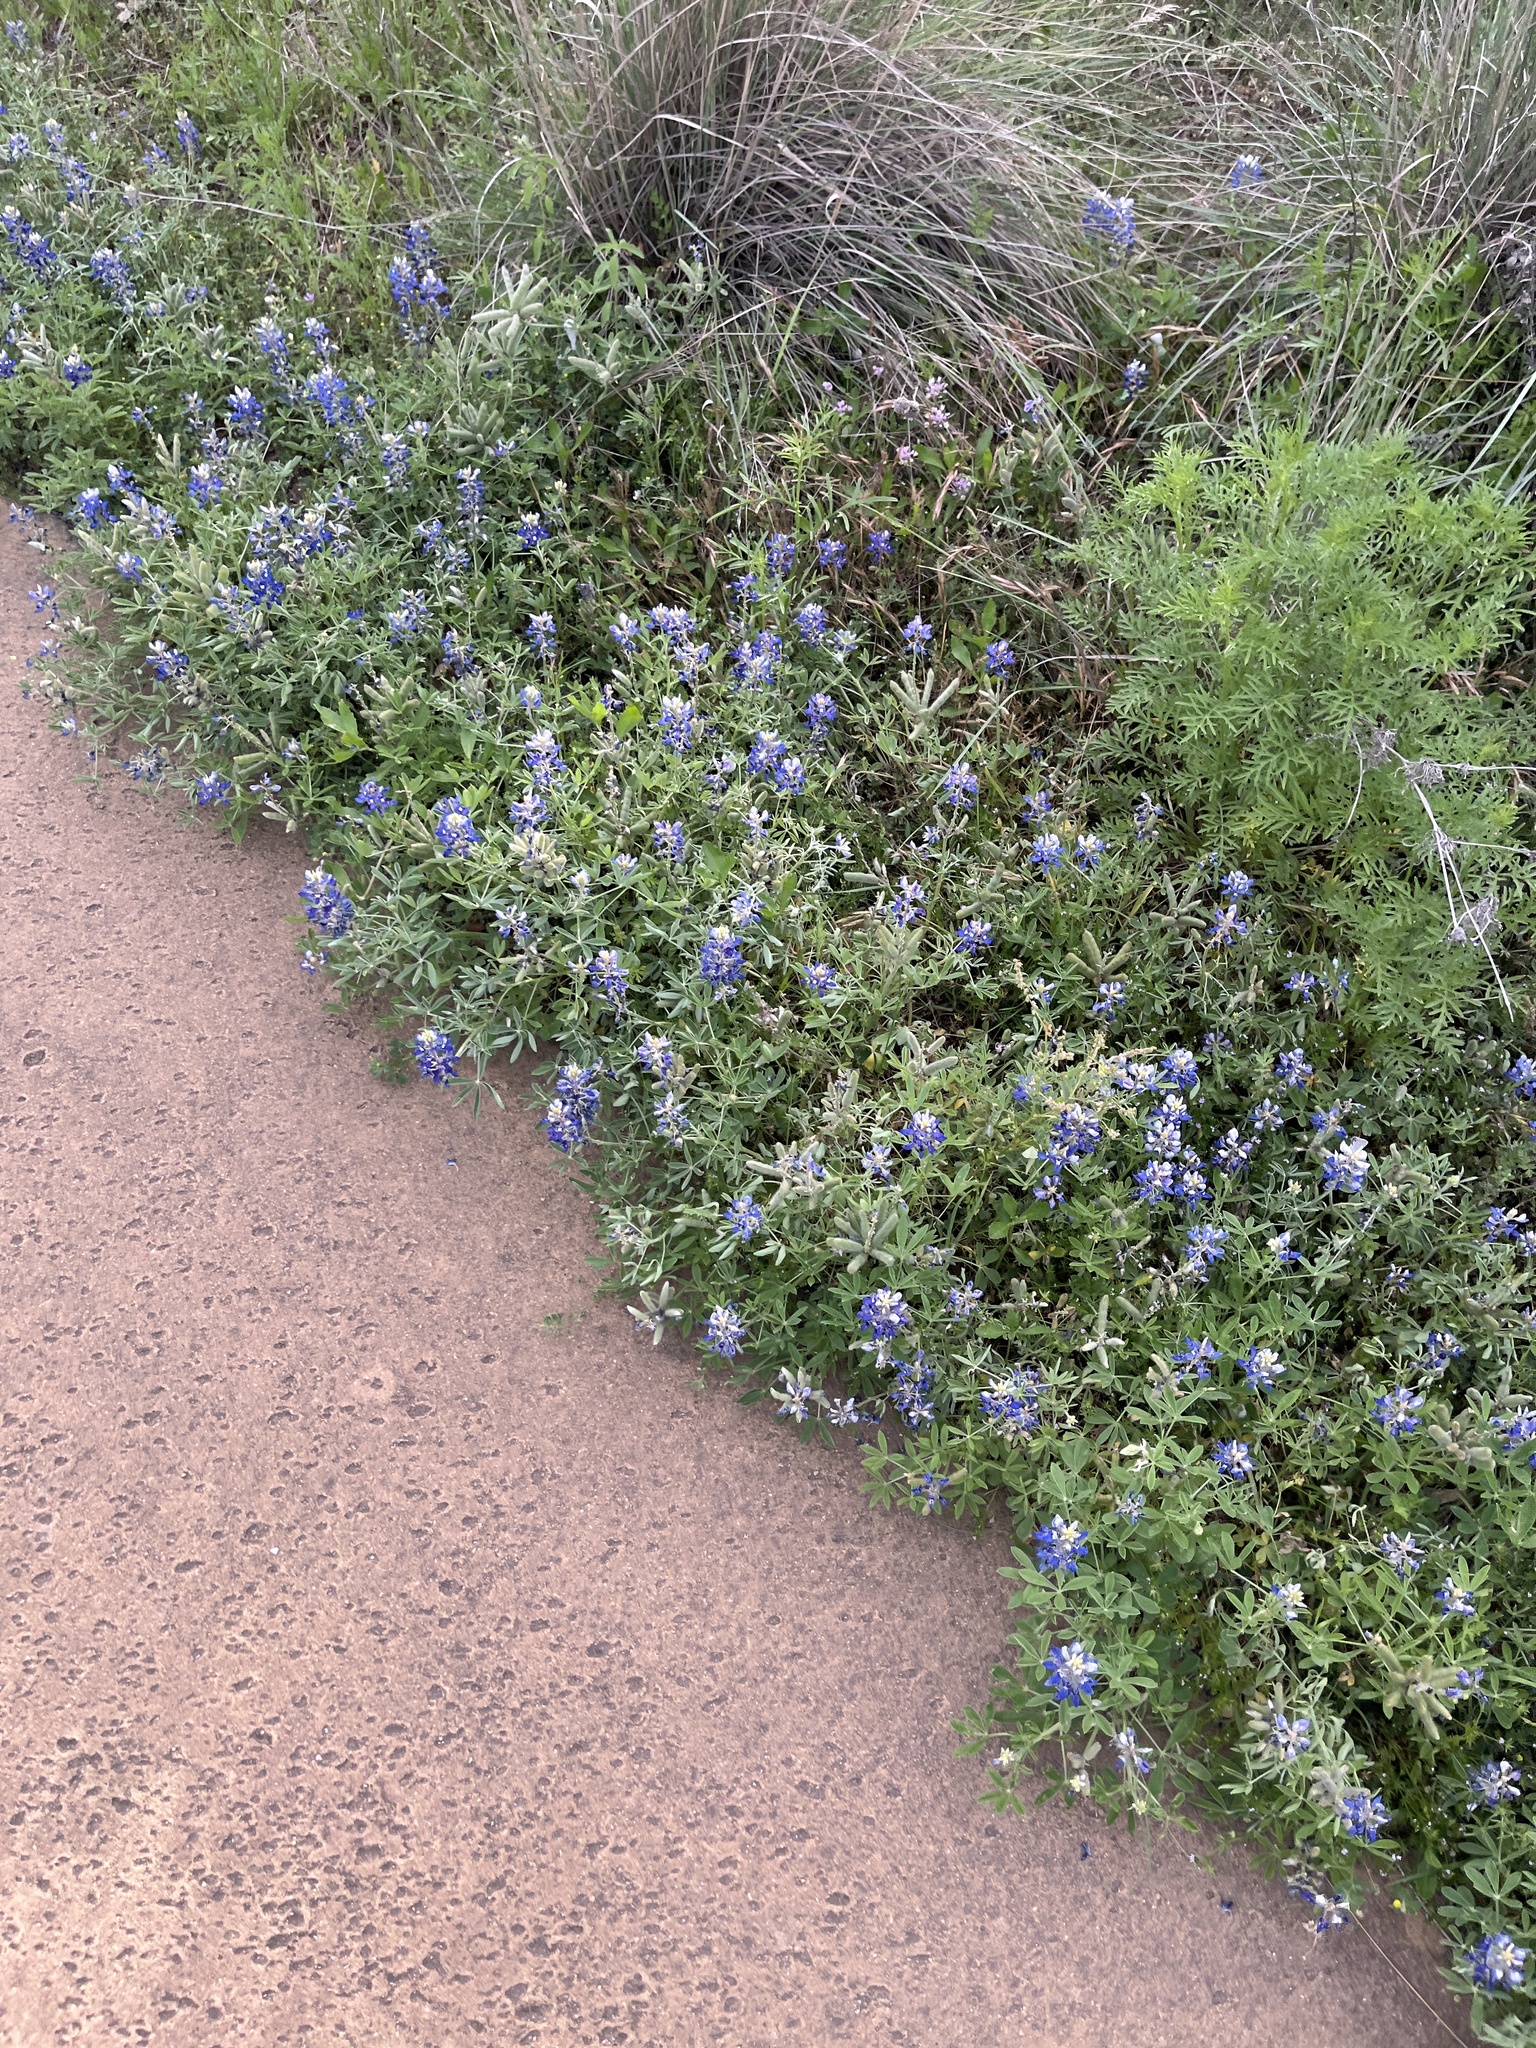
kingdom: Plantae
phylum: Tracheophyta
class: Magnoliopsida
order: Fabales
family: Fabaceae
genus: Lupinus
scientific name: Lupinus texensis
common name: Texas bluebonnet
